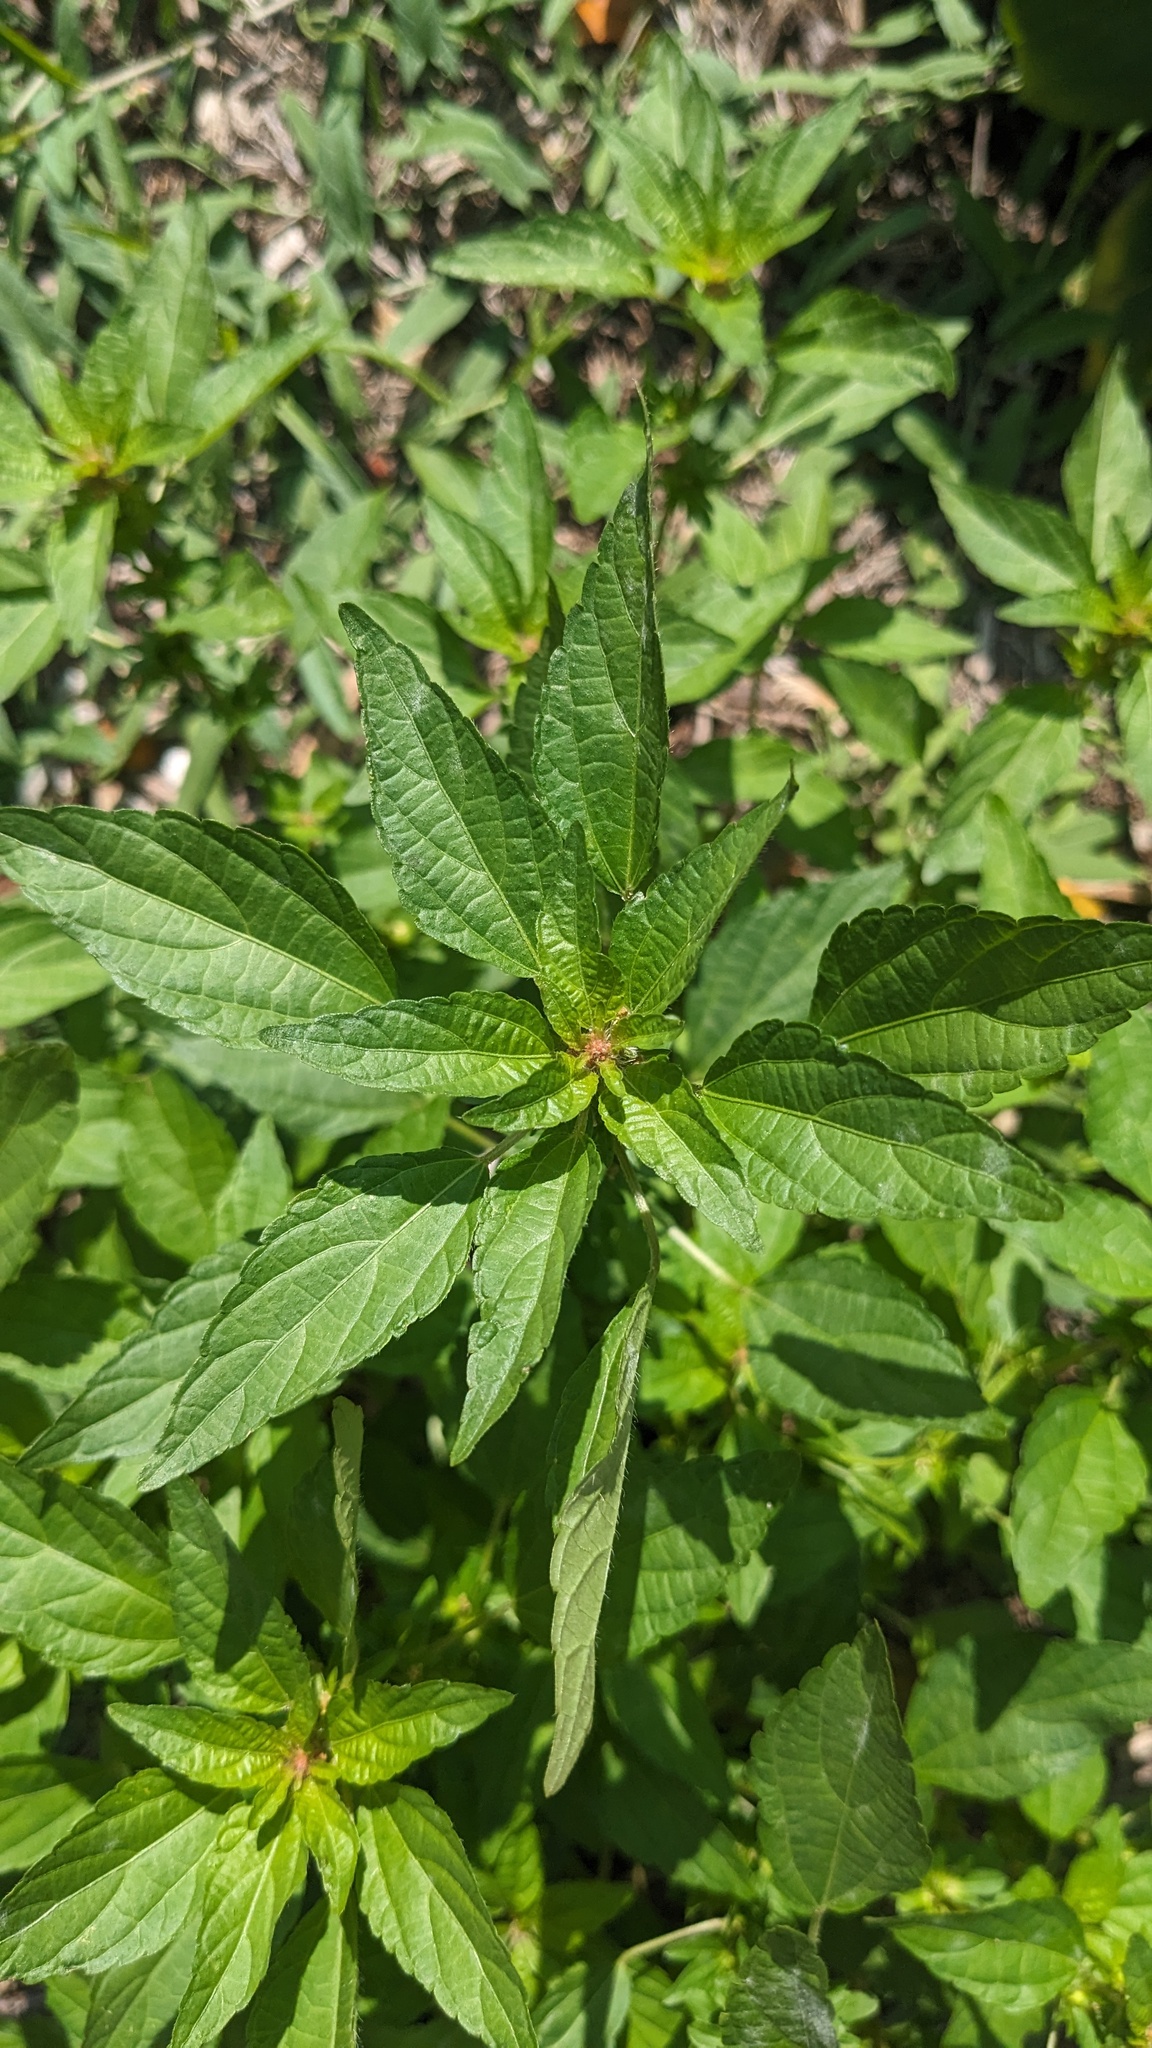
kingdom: Plantae
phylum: Tracheophyta
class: Magnoliopsida
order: Malpighiales
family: Euphorbiaceae
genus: Acalypha
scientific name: Acalypha rhomboidea
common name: Rhombic copperleaf
